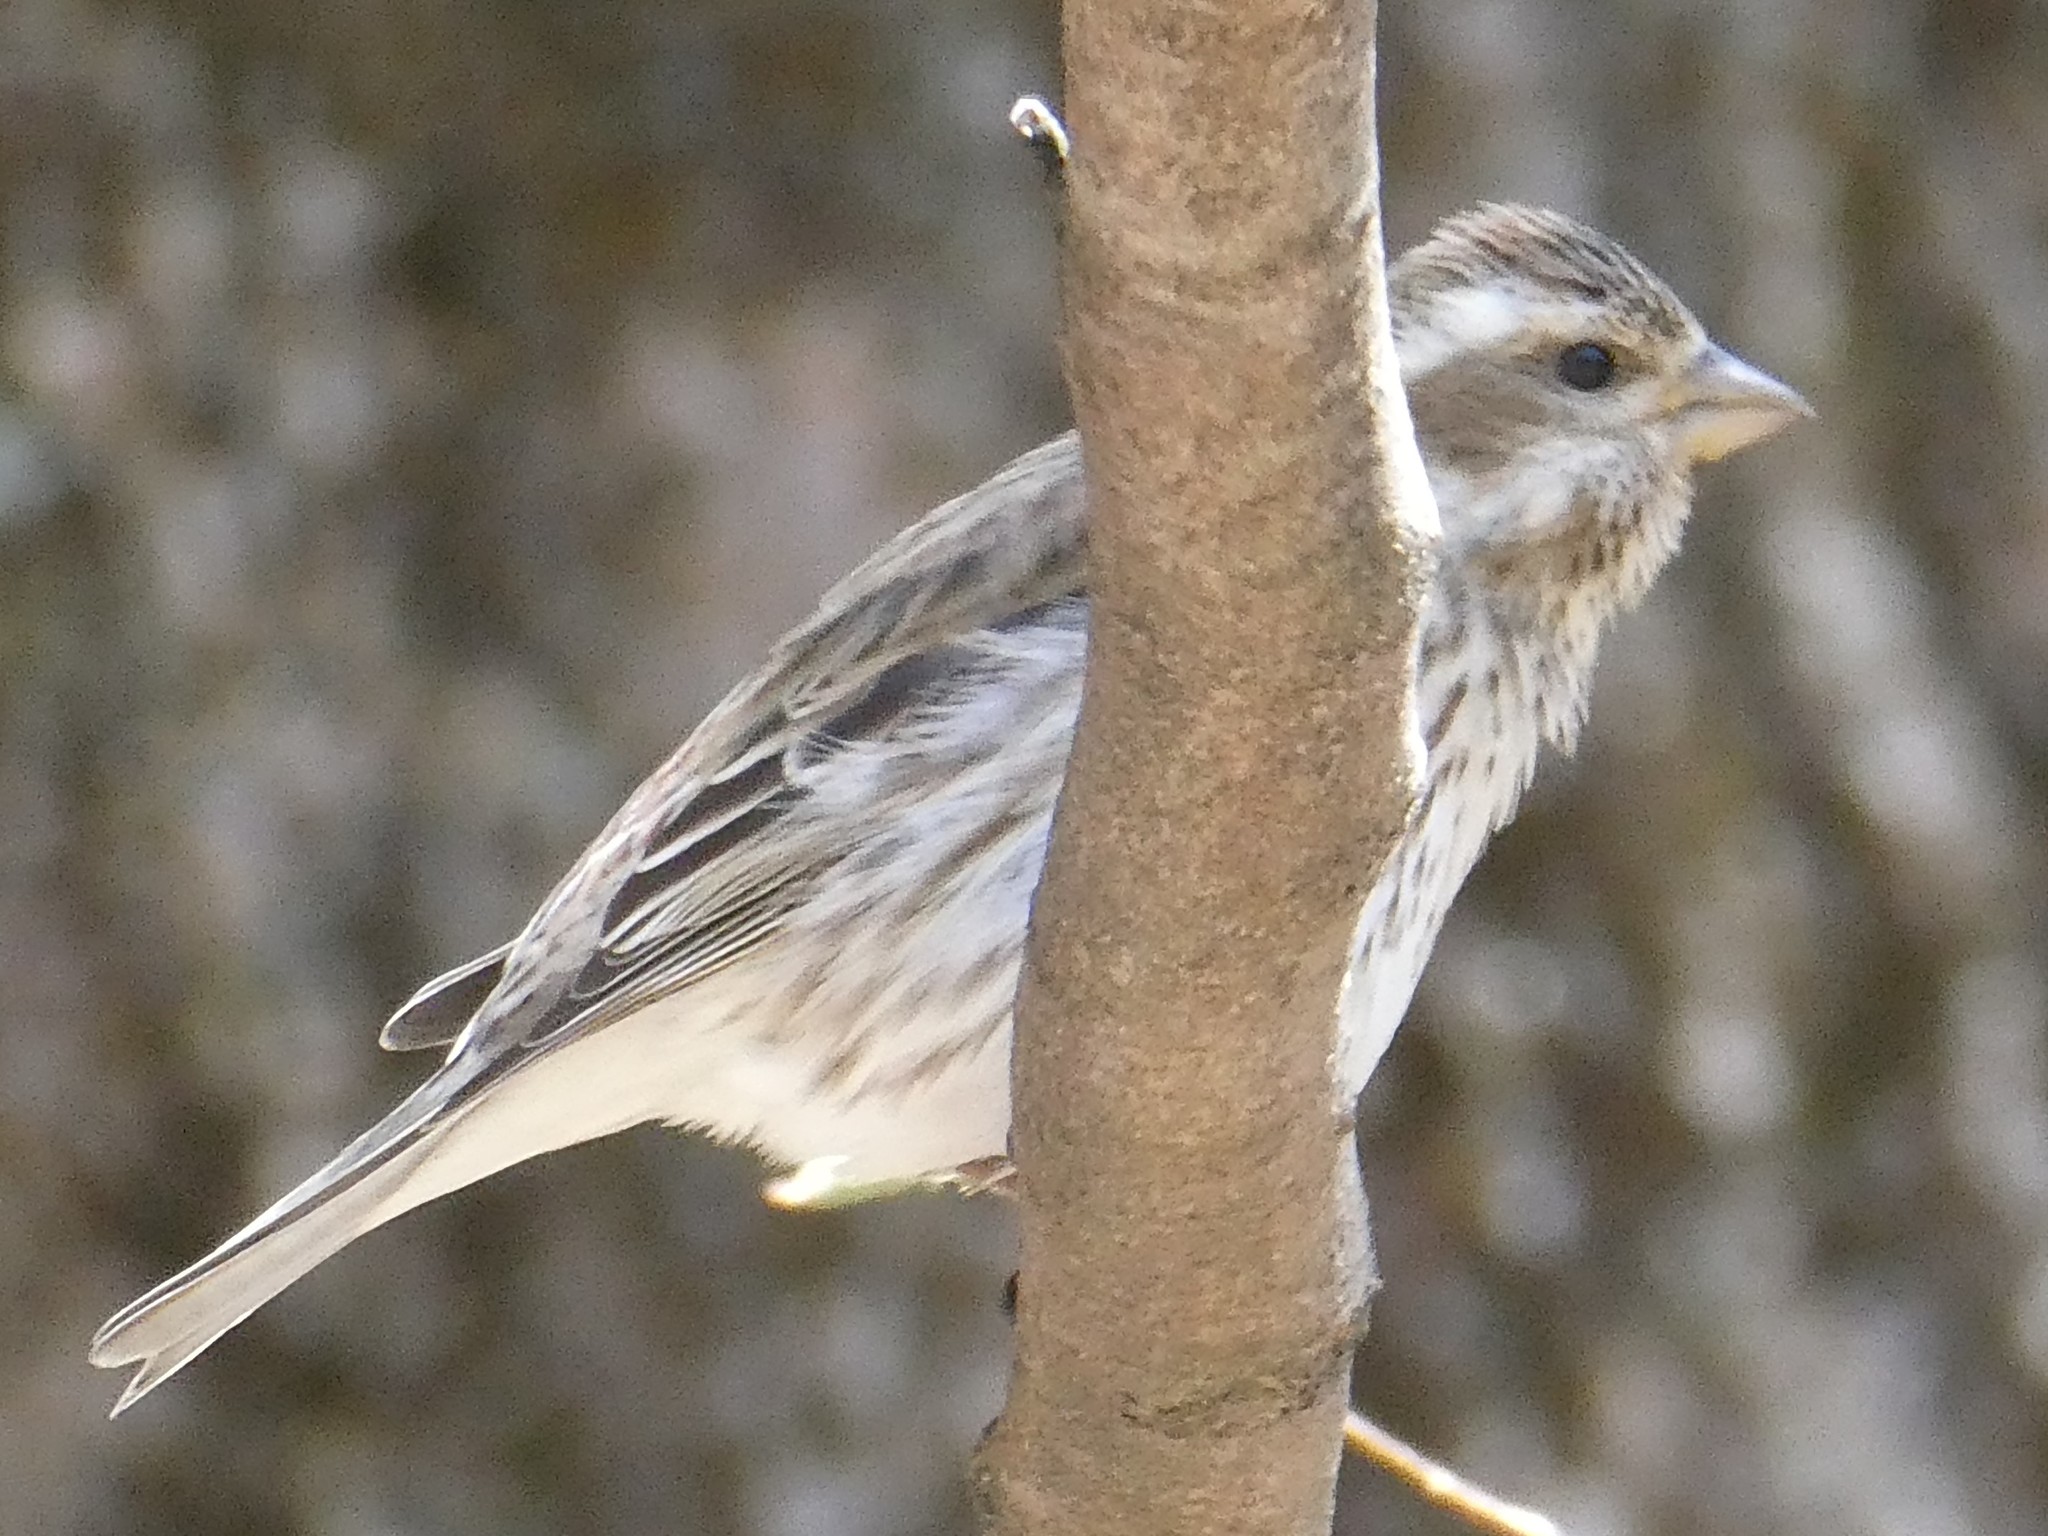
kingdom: Animalia
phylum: Chordata
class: Aves
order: Passeriformes
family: Fringillidae
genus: Haemorhous
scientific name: Haemorhous purpureus
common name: Purple finch
